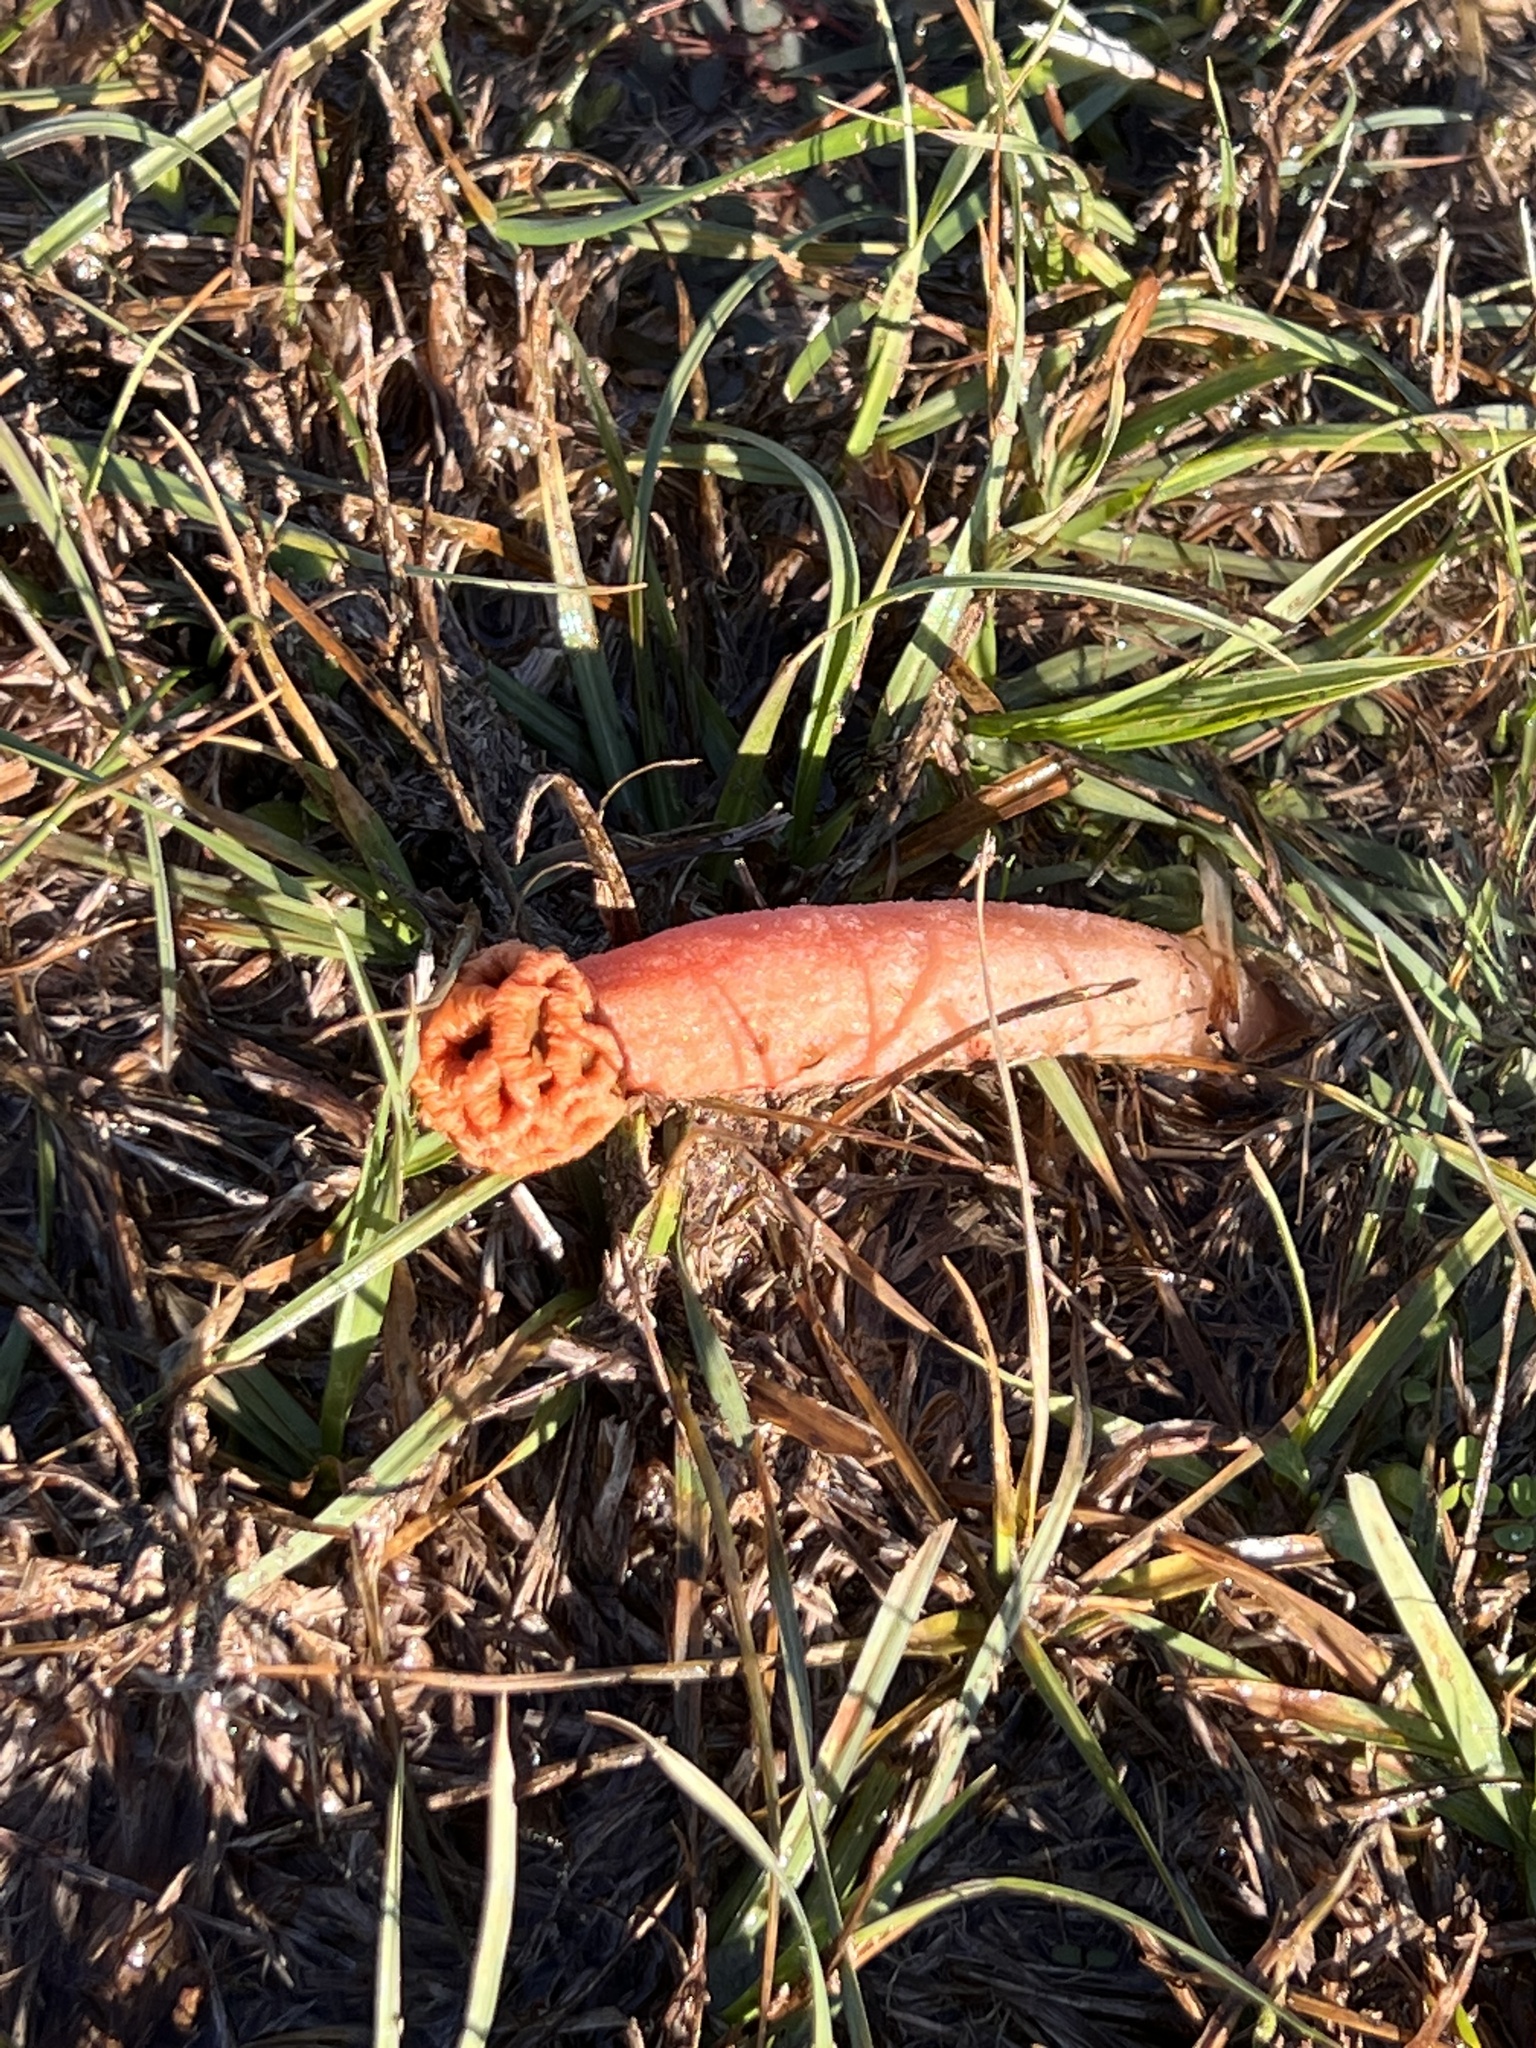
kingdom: Fungi
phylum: Basidiomycota
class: Agaricomycetes
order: Phallales
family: Phallaceae
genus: Lysurus
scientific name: Lysurus periphragmoides
